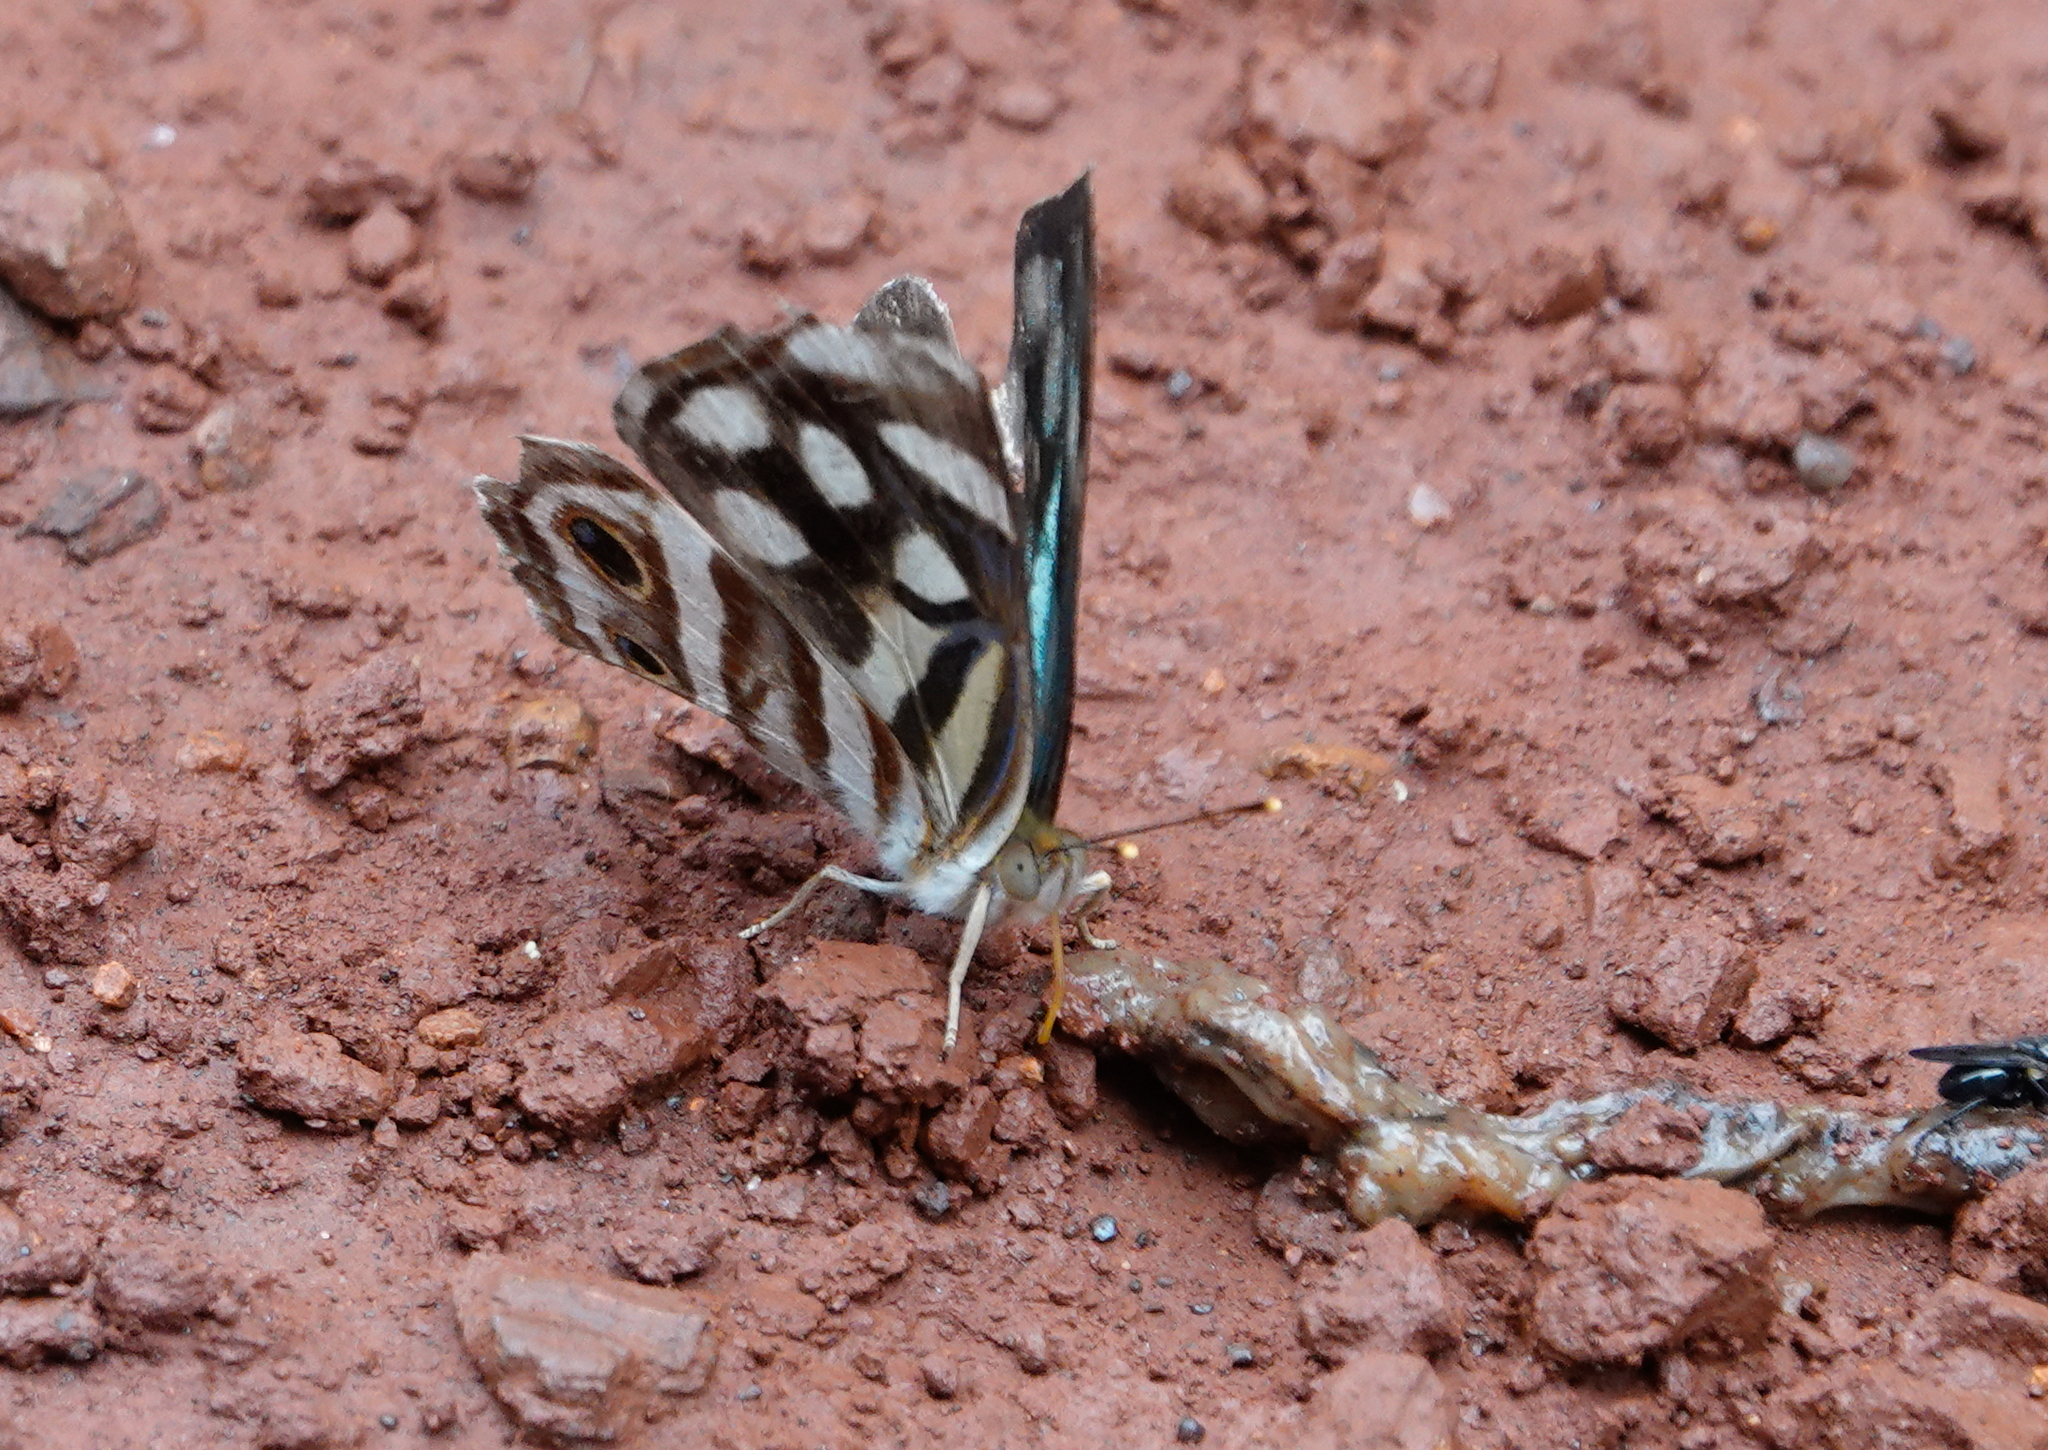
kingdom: Animalia
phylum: Arthropoda
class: Insecta
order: Lepidoptera
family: Nymphalidae
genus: Dynamine
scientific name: Dynamine mylitta
